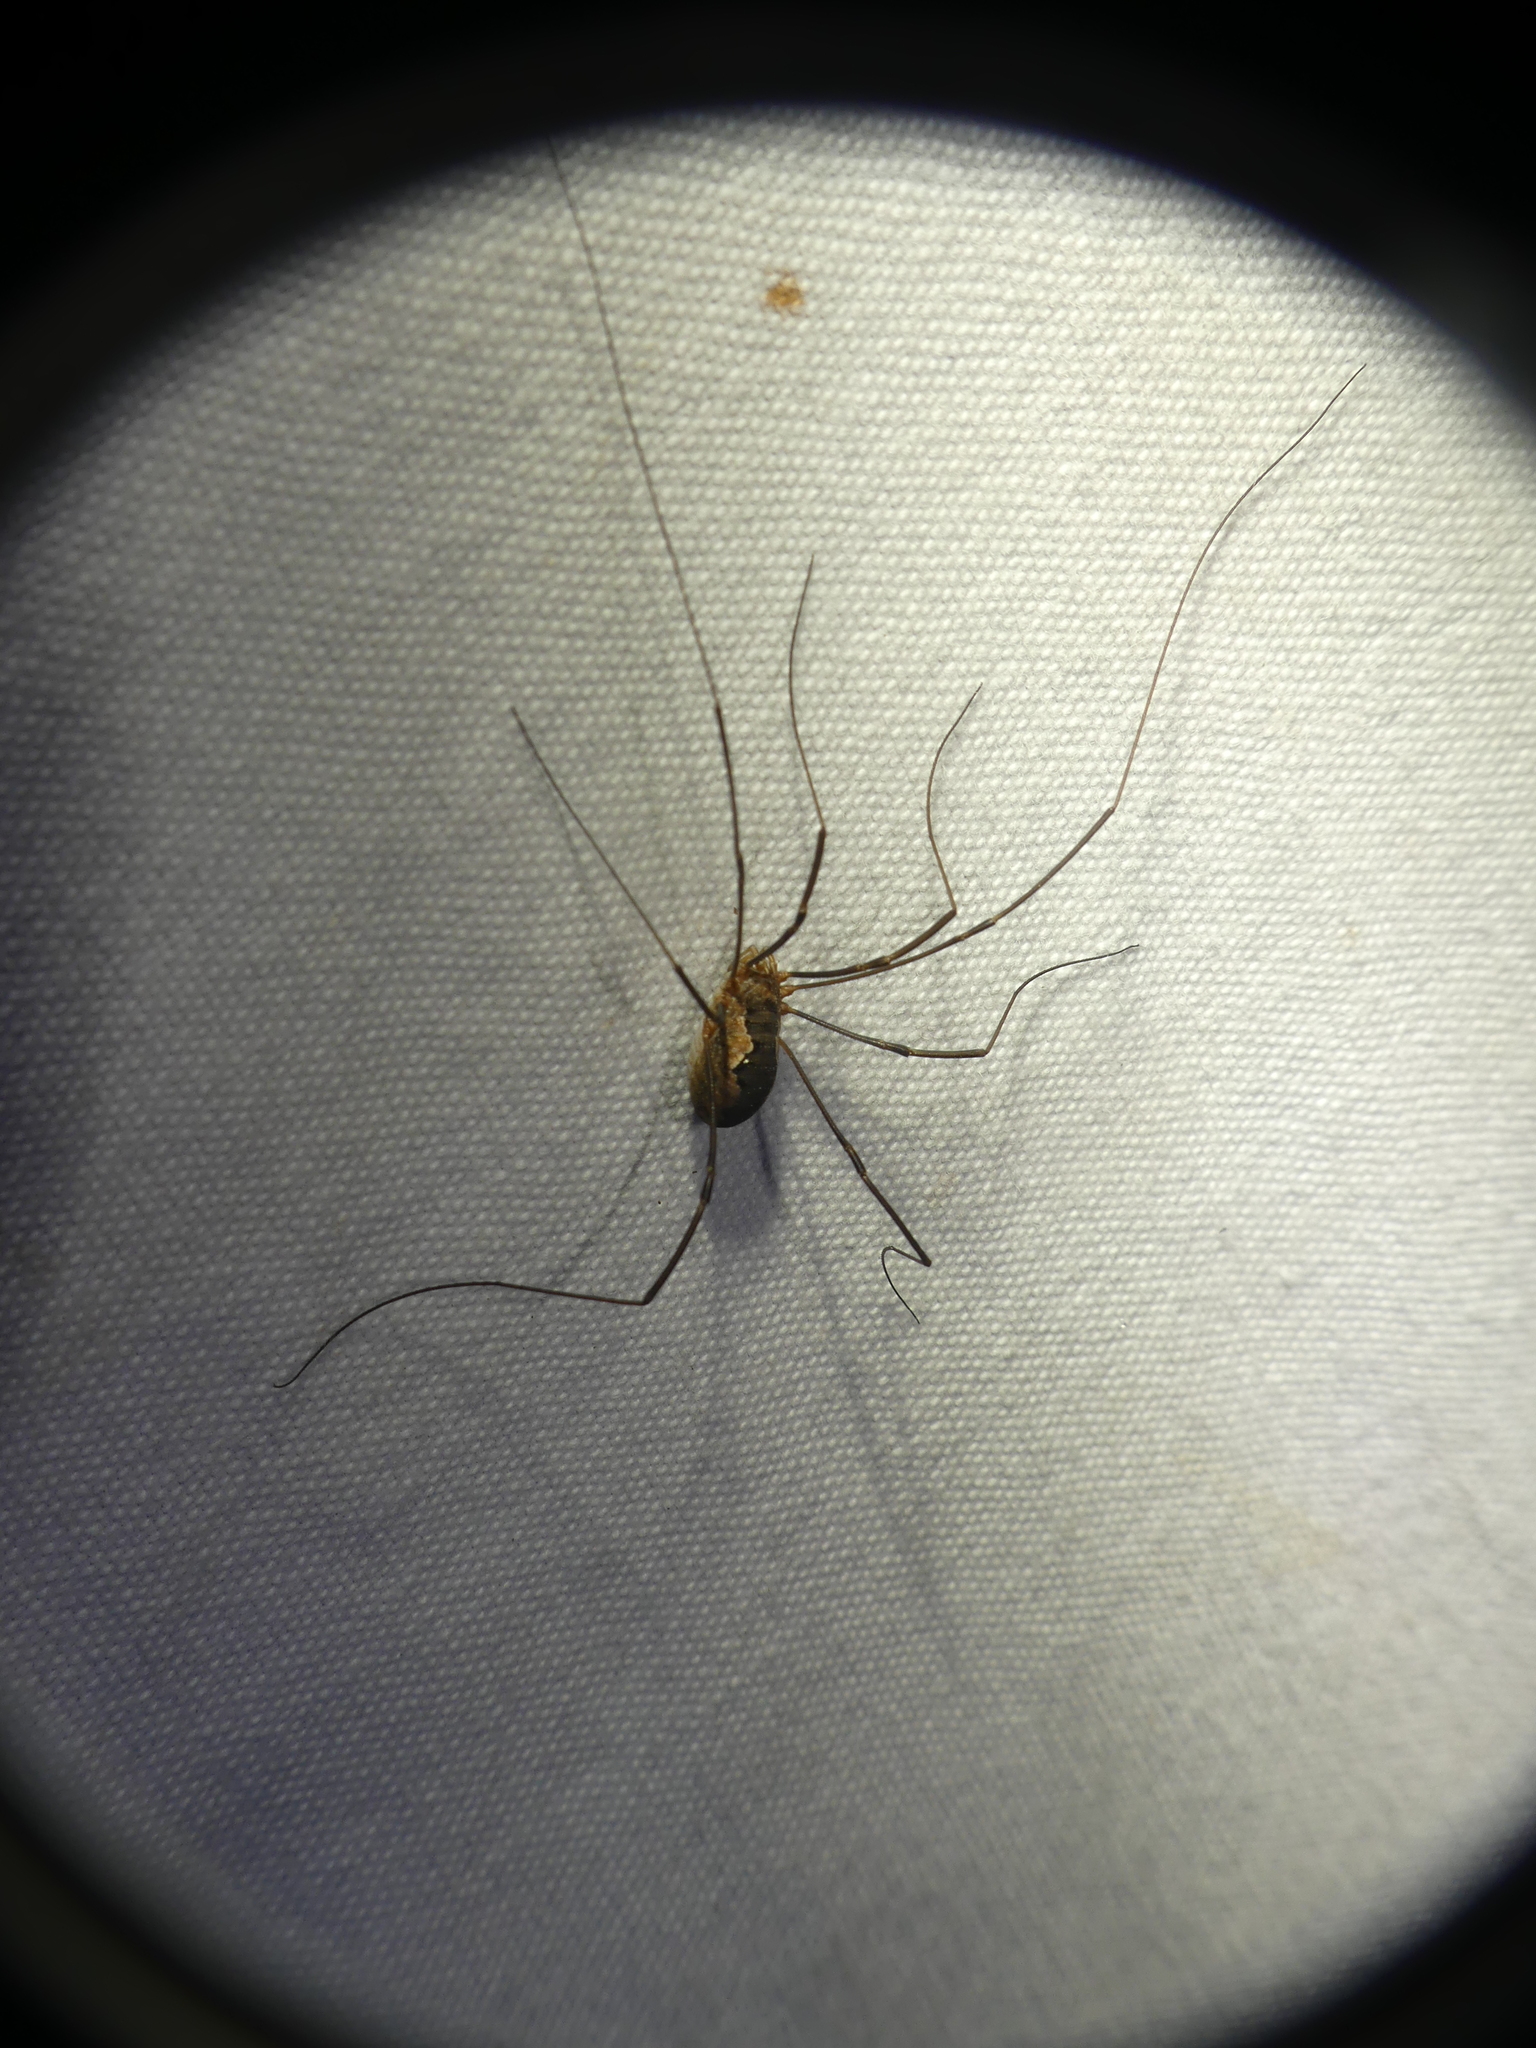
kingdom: Animalia
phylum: Arthropoda
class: Arachnida
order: Opiliones
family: Phalangiidae
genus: Phalangium
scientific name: Phalangium opilio
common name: Daddy longleg
